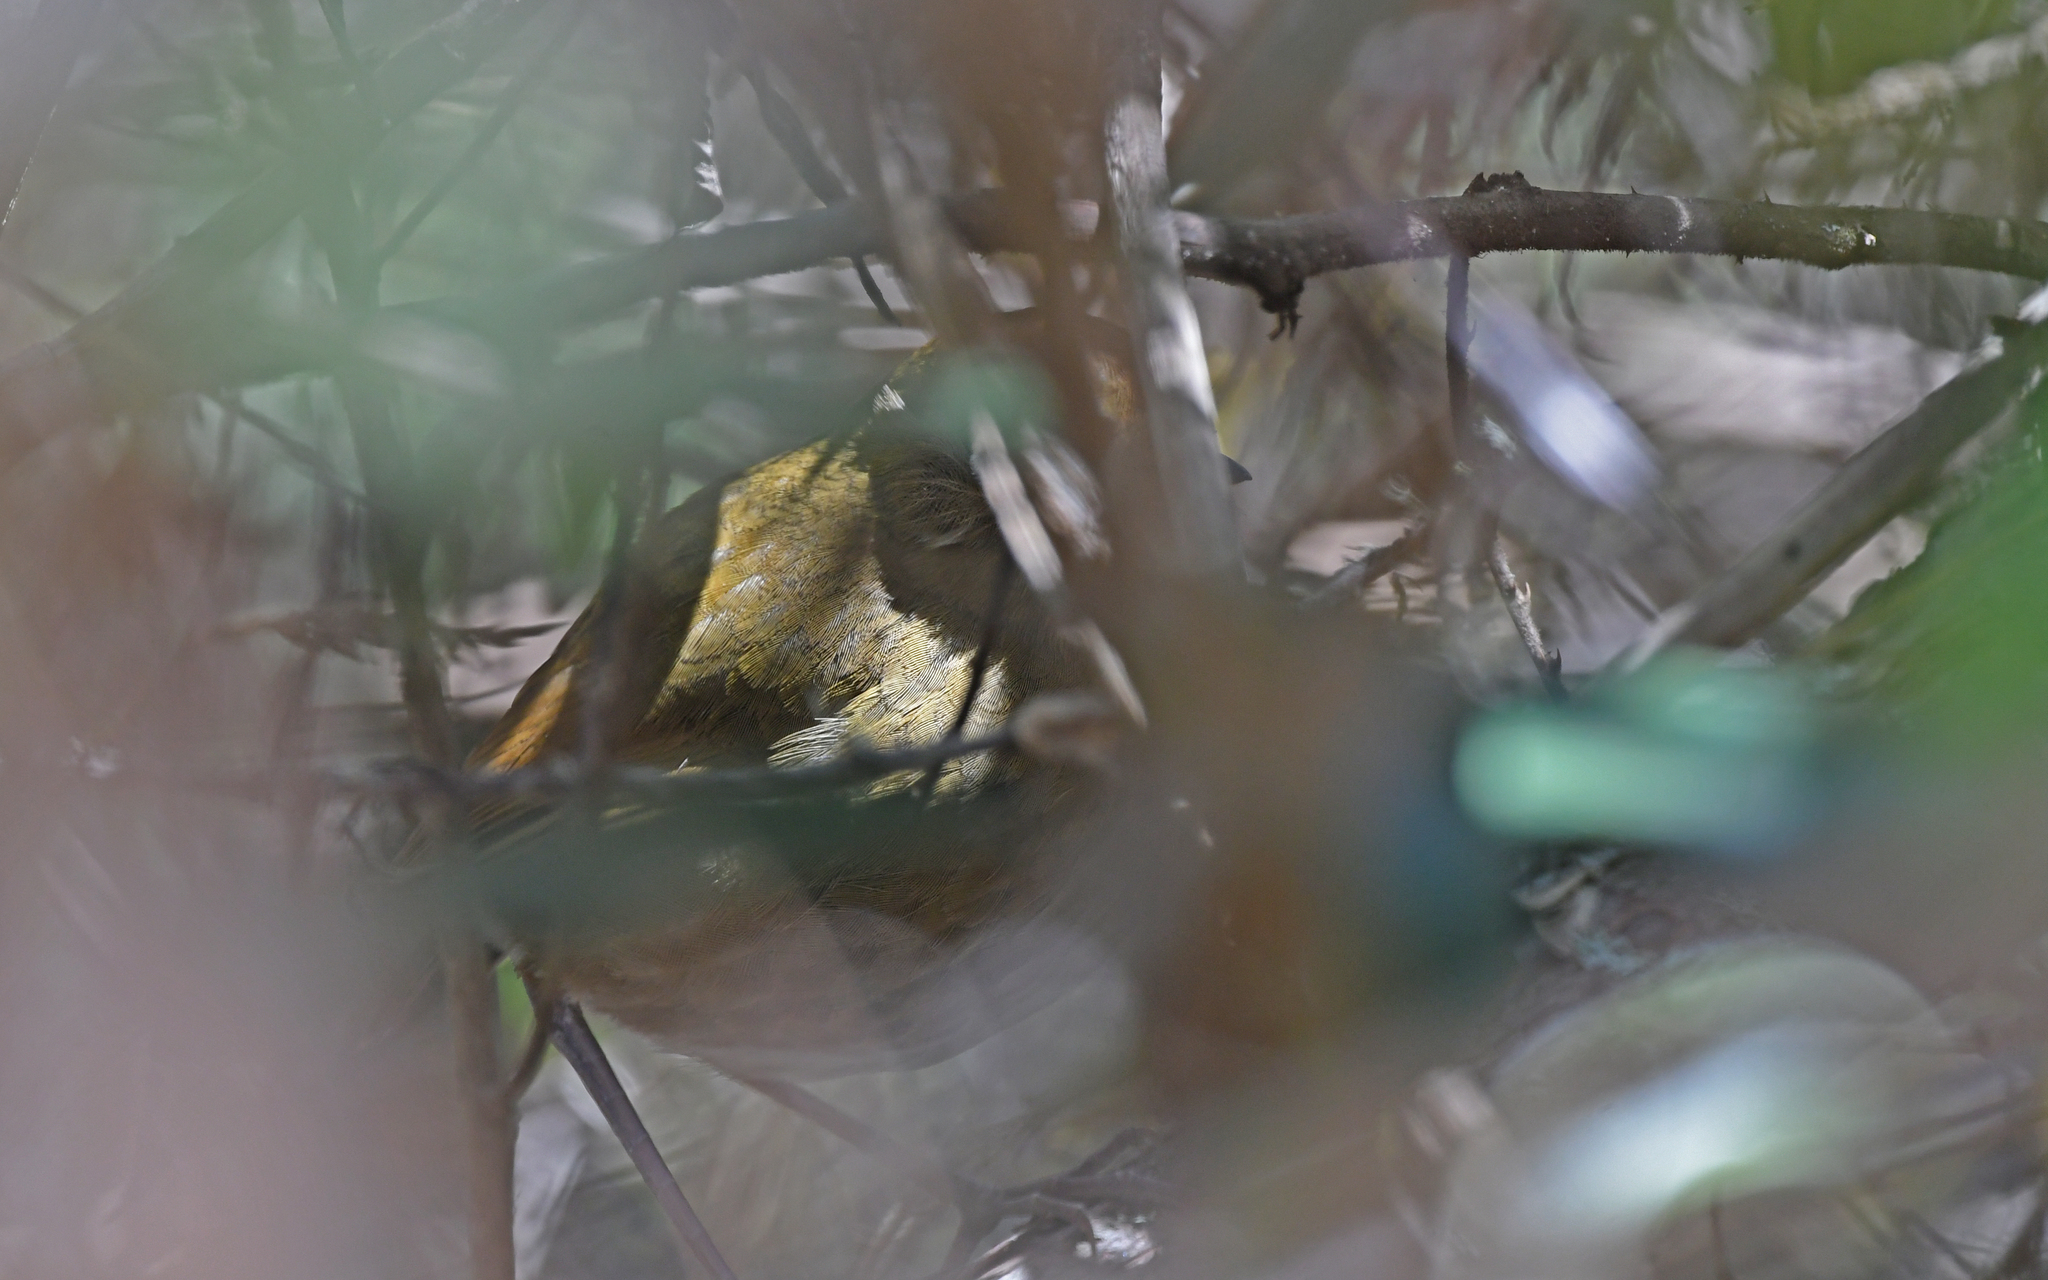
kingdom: Animalia
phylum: Chordata
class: Aves
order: Passeriformes
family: Grallariidae
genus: Grallaria
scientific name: Grallaria saltuensis
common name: Perija antpitta
